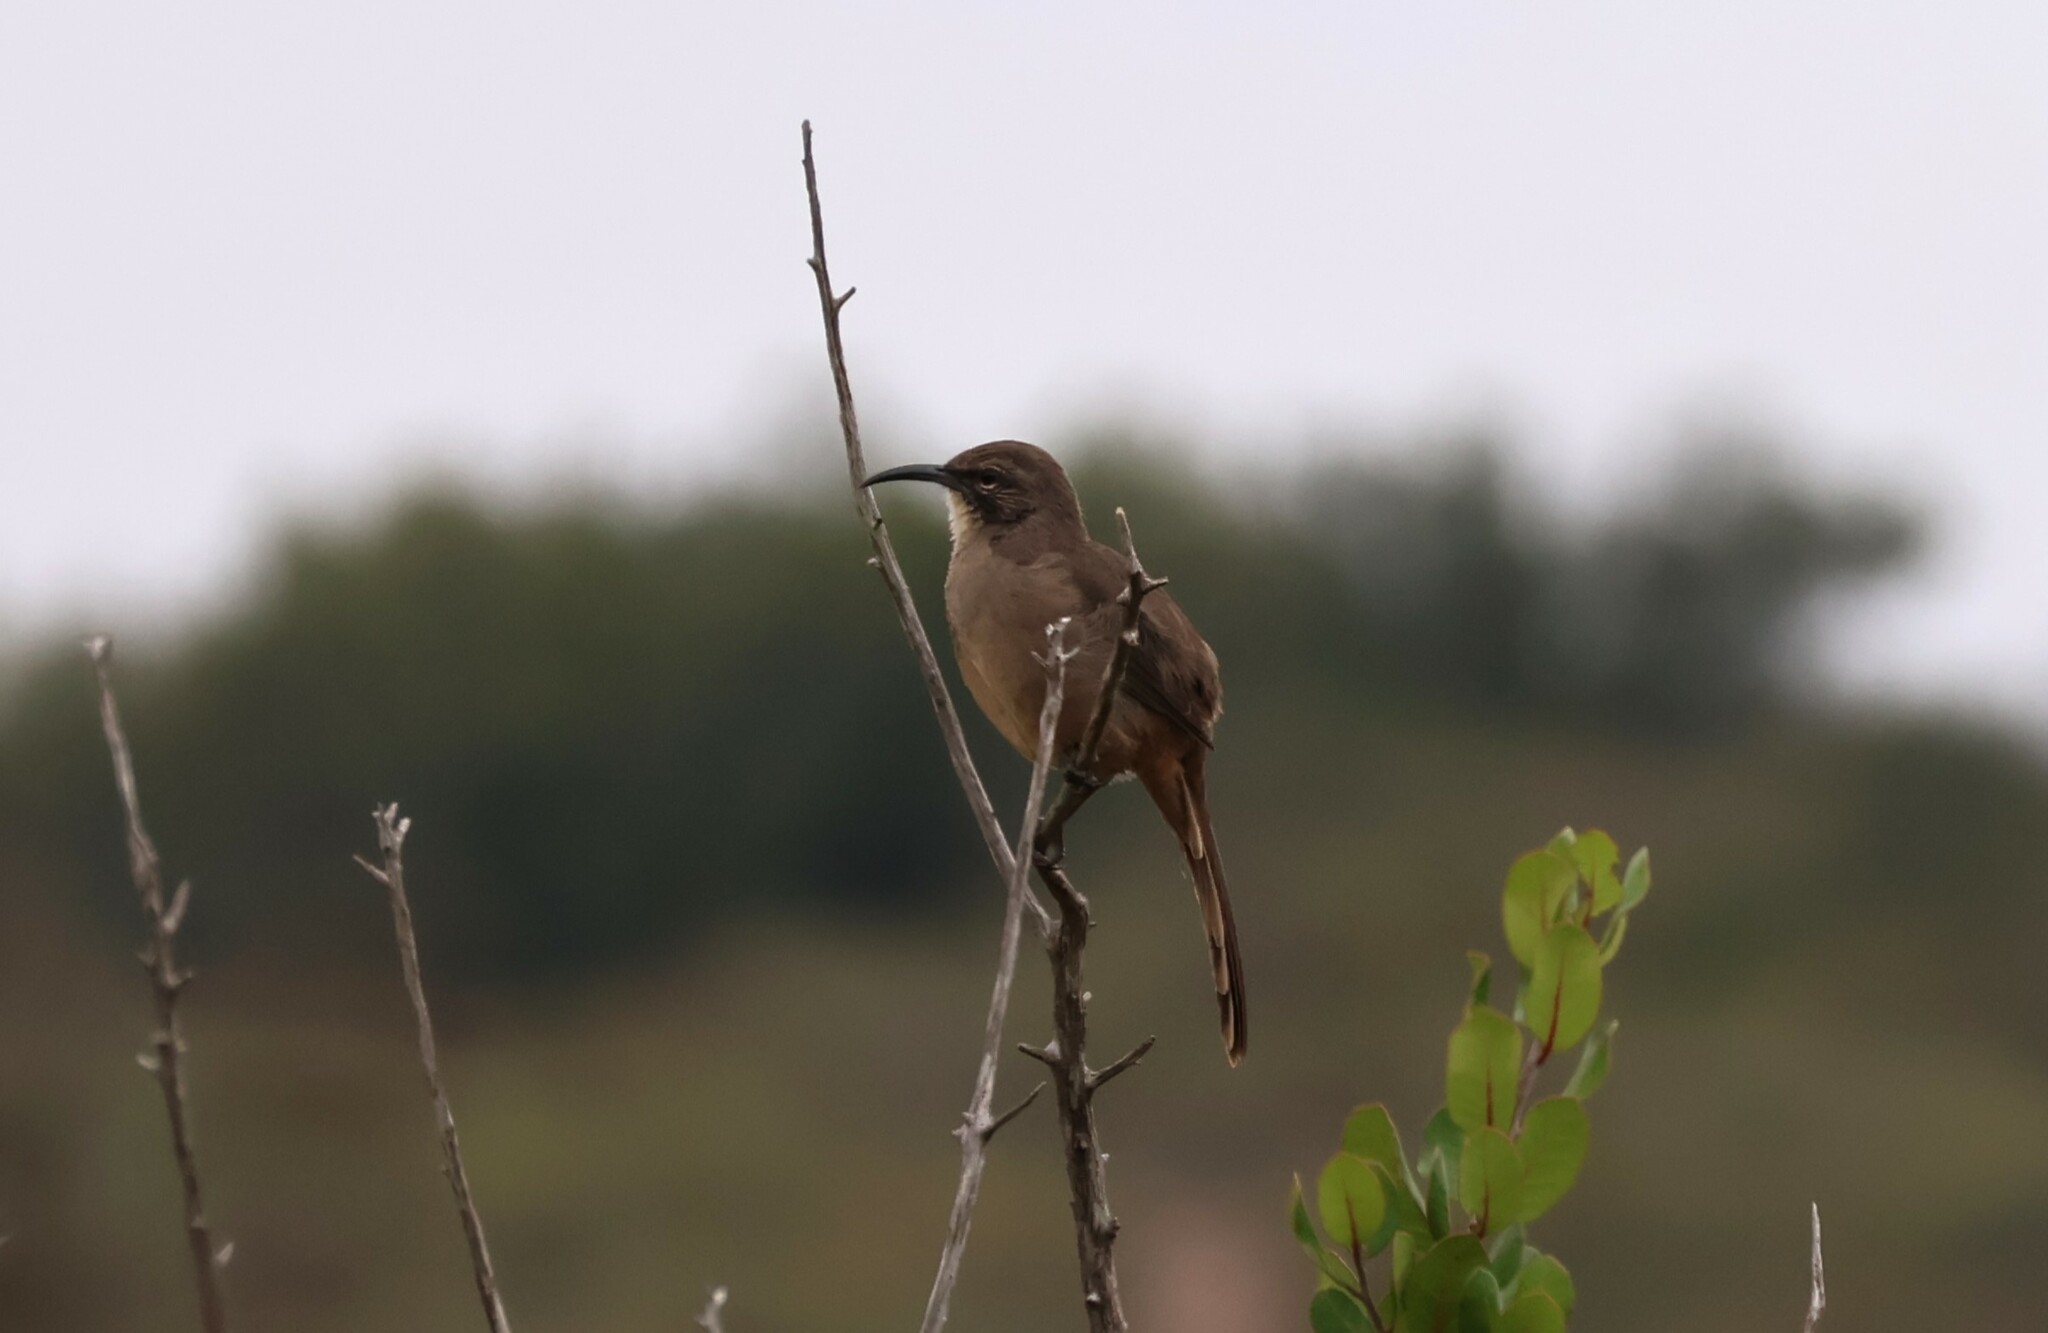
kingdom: Animalia
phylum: Chordata
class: Aves
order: Passeriformes
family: Mimidae
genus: Toxostoma
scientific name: Toxostoma redivivum
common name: California thrasher
